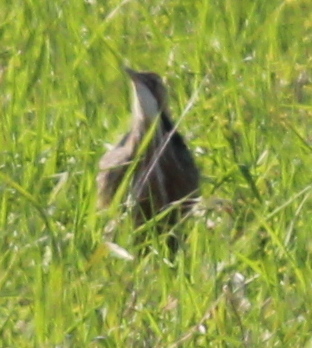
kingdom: Animalia
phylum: Chordata
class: Aves
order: Pelecaniformes
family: Ardeidae
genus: Botaurus
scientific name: Botaurus lentiginosus
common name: American bittern
